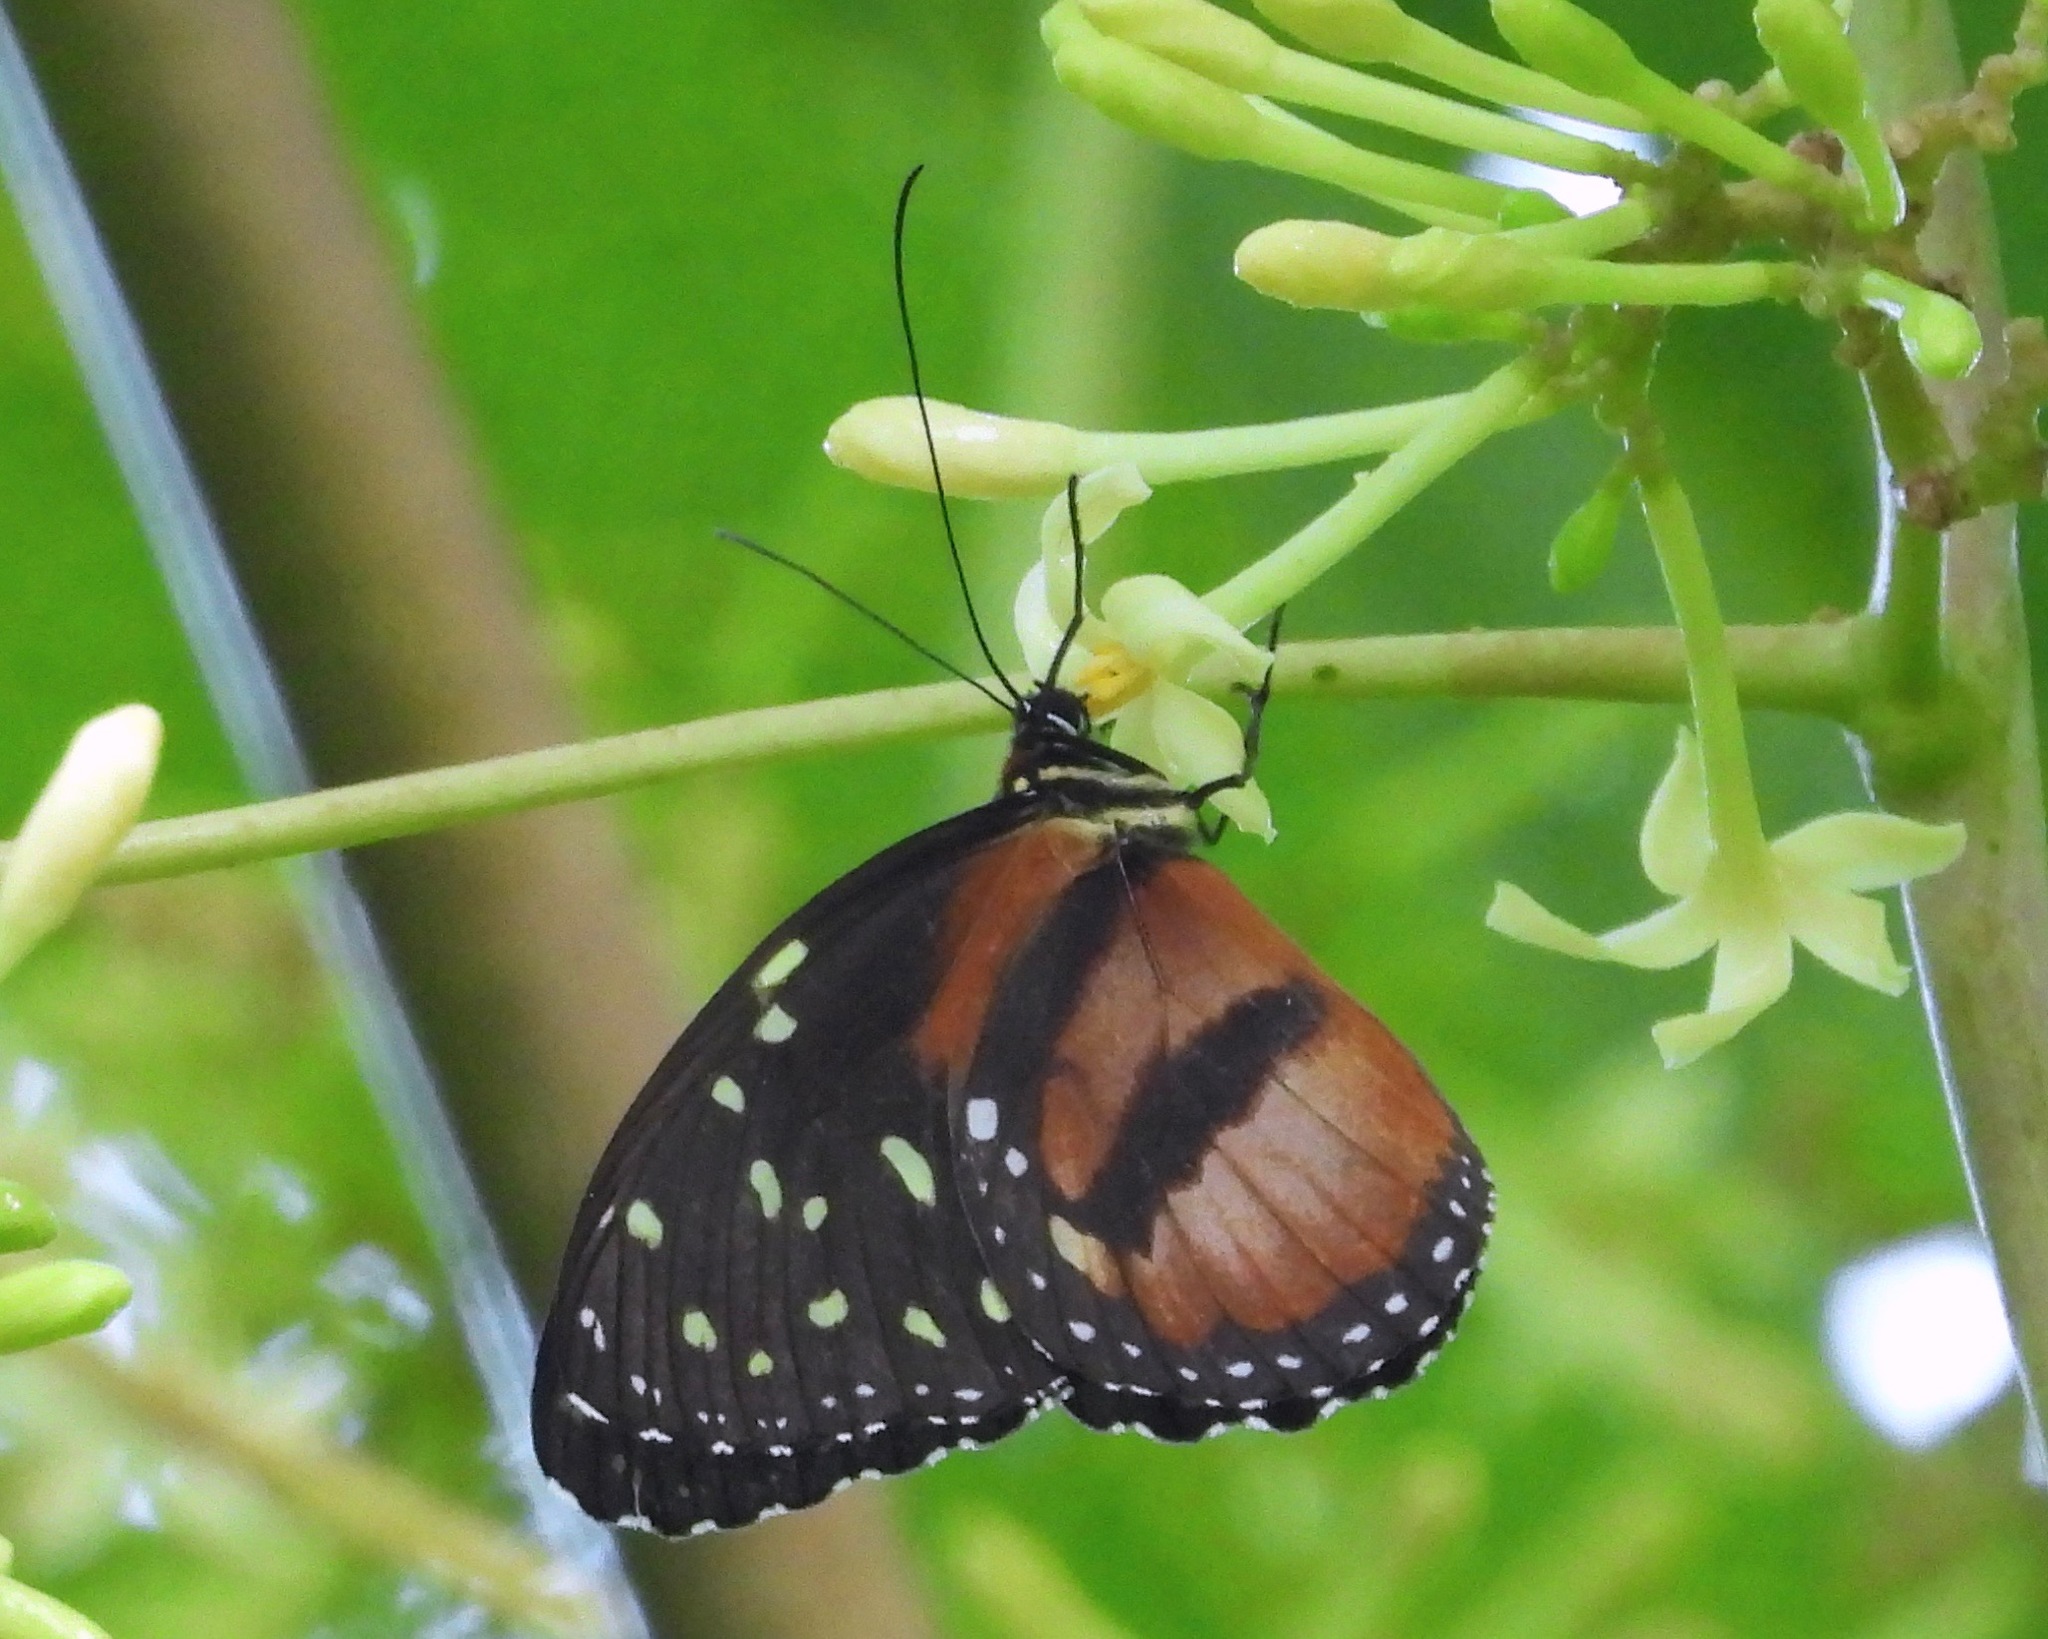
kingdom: Animalia
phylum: Arthropoda
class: Insecta
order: Lepidoptera
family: Nymphalidae
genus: Tithorea
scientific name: Tithorea tarricina
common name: Cream-spotted tigerwing
